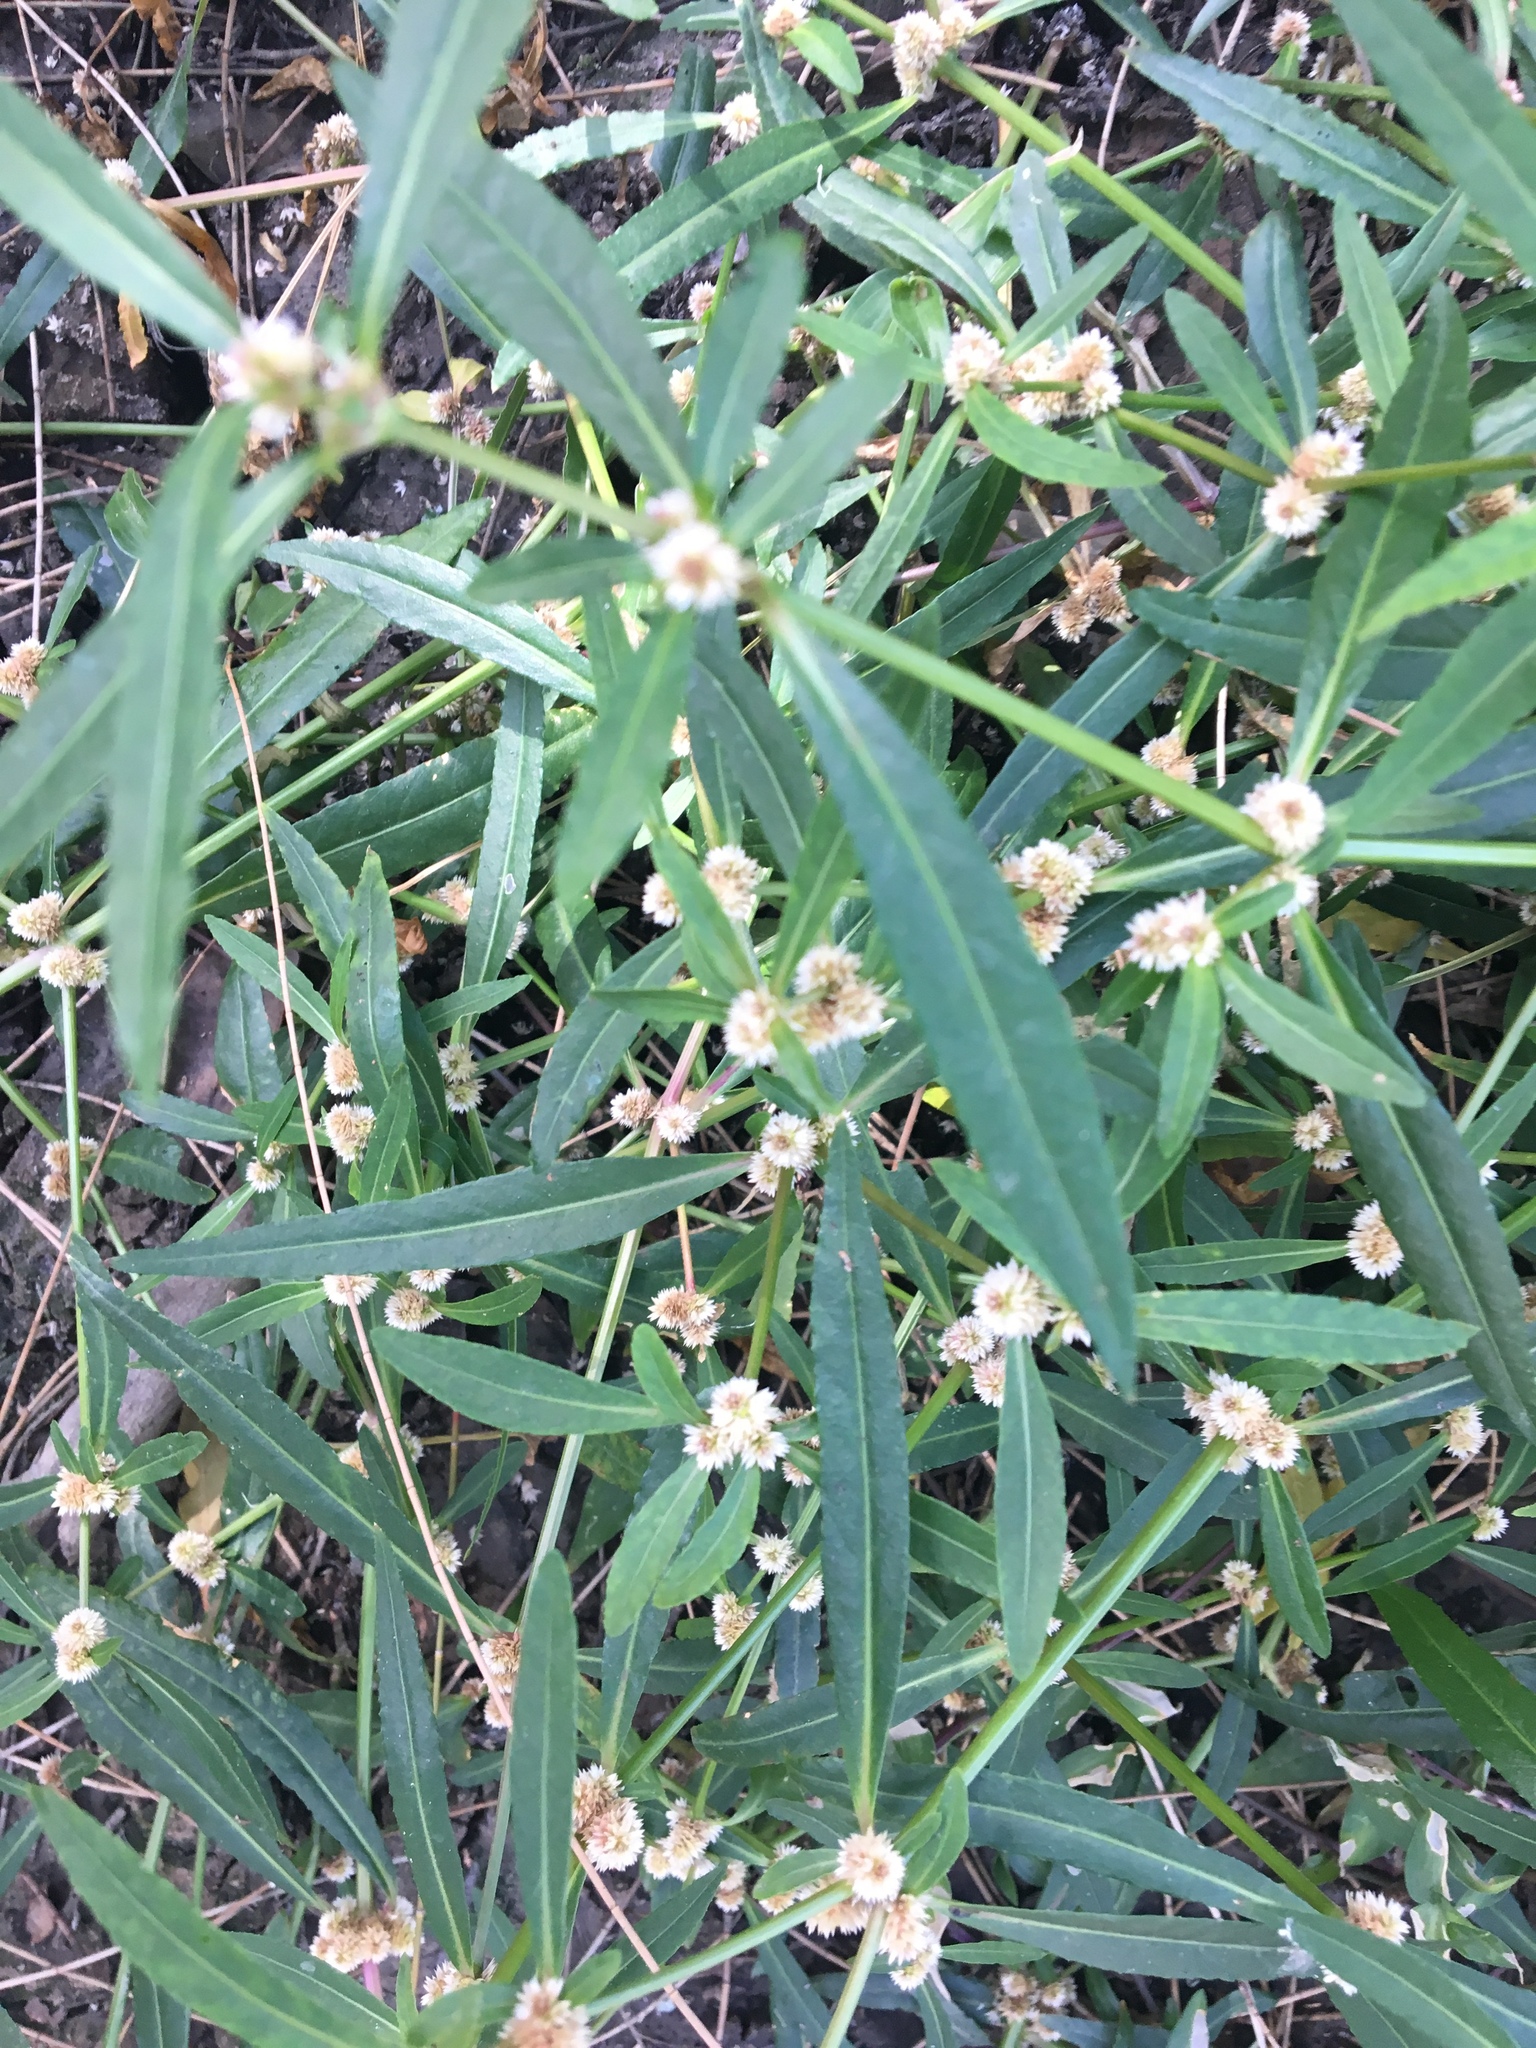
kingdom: Plantae
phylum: Tracheophyta
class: Magnoliopsida
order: Caryophyllales
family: Amaranthaceae
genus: Alternanthera
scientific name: Alternanthera denticulata
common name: Lesser joyweed
